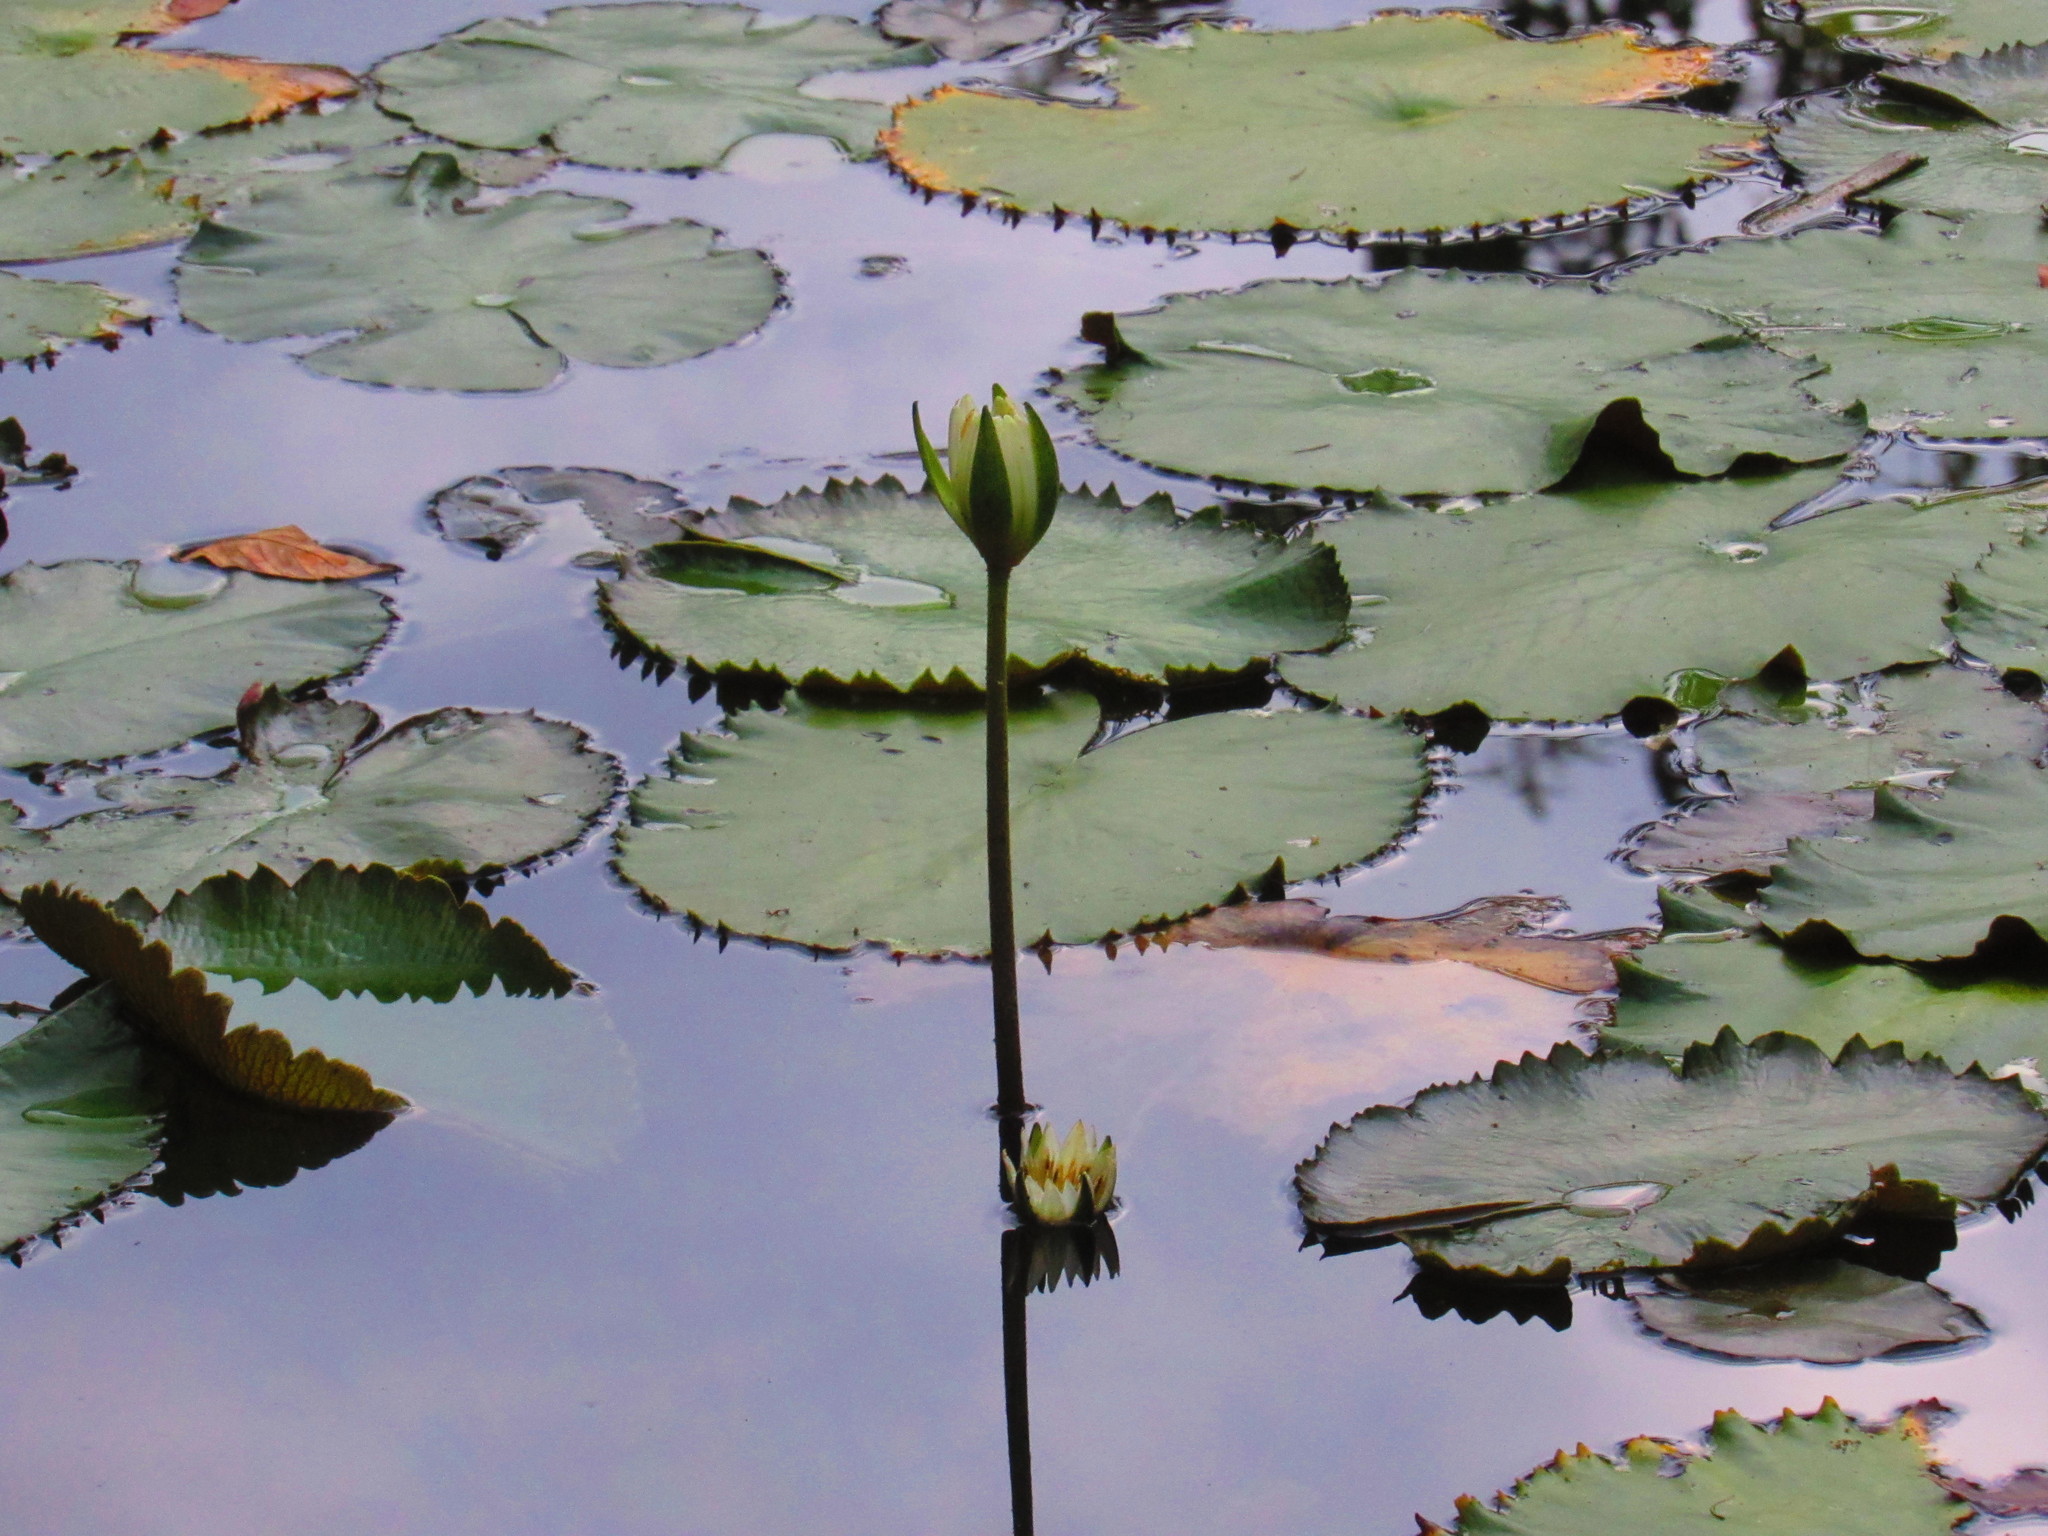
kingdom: Plantae
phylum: Tracheophyta
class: Magnoliopsida
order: Nymphaeales
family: Nymphaeaceae
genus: Nymphaea
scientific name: Nymphaea ampla
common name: Dotleaf waterlily
